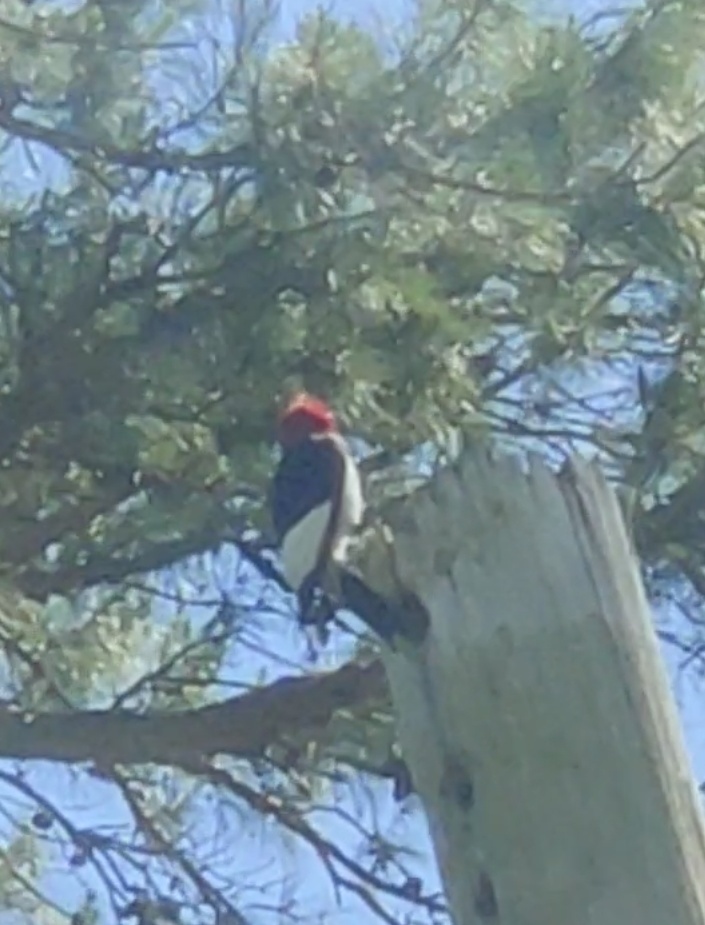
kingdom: Animalia
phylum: Chordata
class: Aves
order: Piciformes
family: Picidae
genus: Melanerpes
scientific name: Melanerpes erythrocephalus
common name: Red-headed woodpecker
